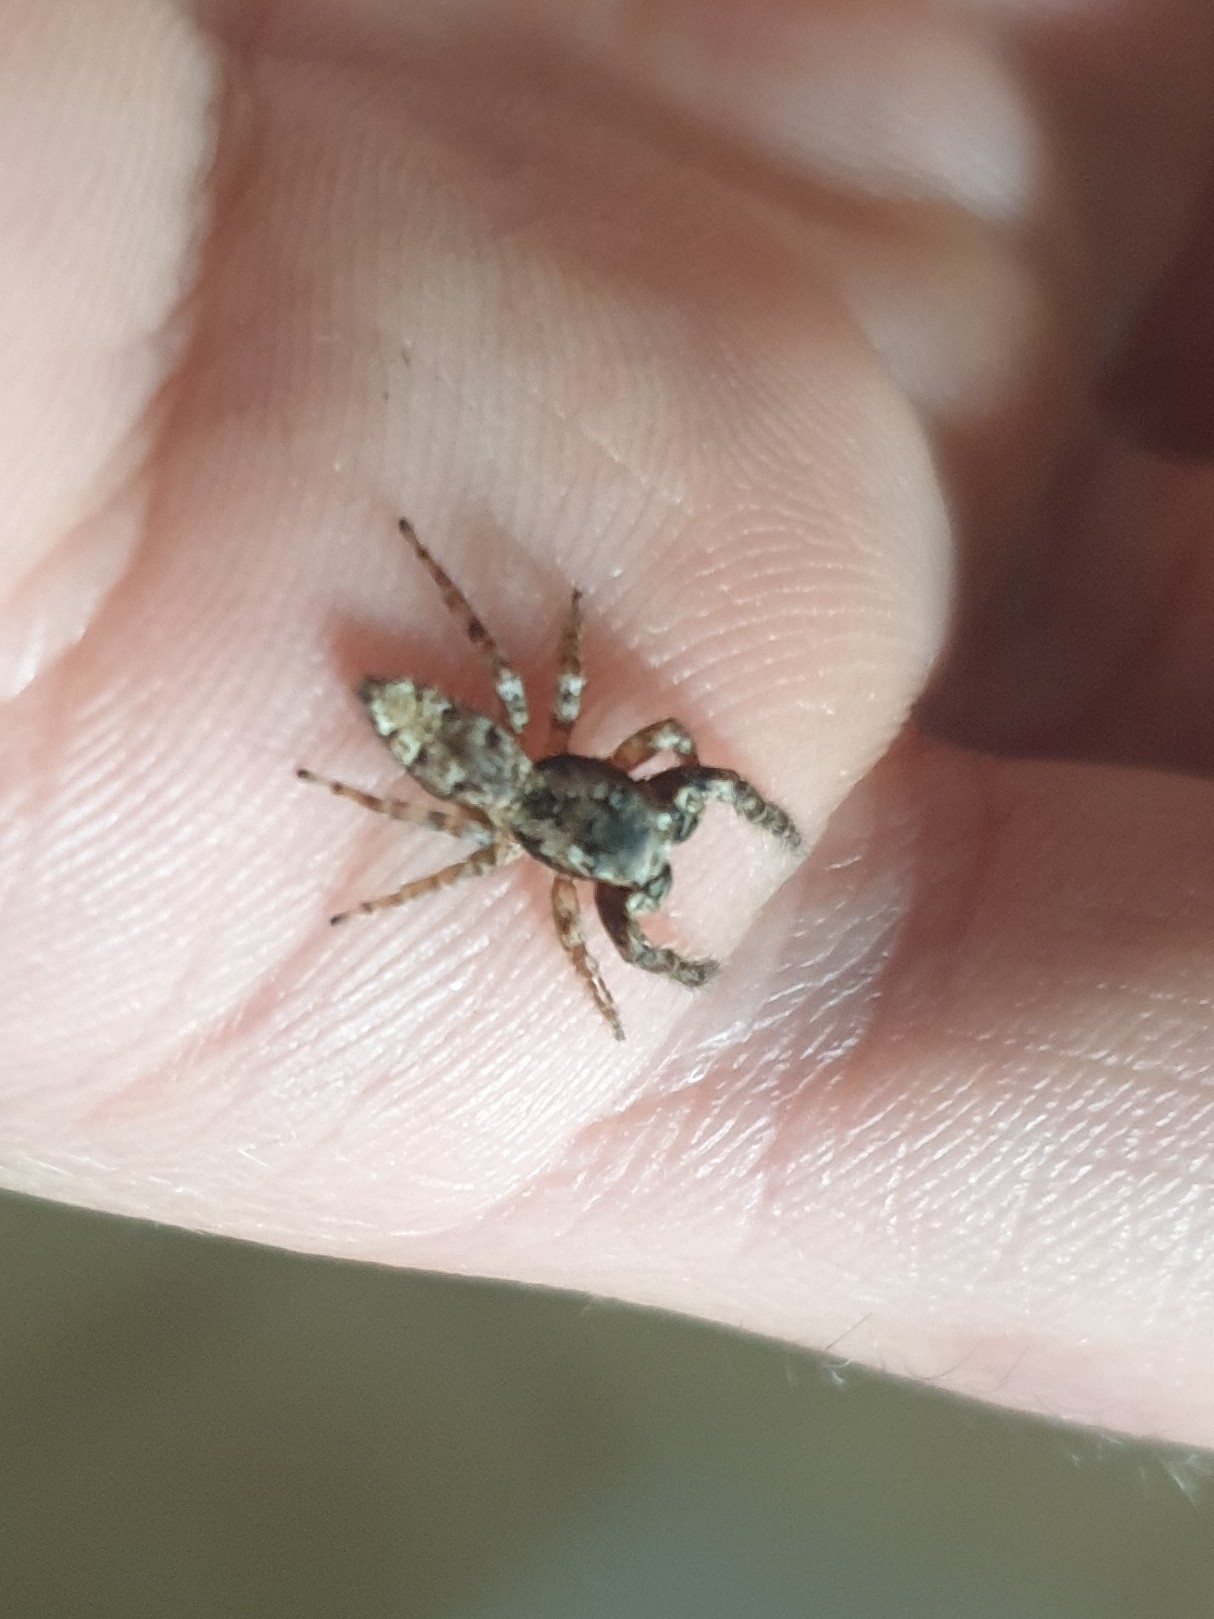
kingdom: Animalia
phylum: Arthropoda
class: Arachnida
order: Araneae
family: Salticidae
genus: Marpissa
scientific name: Marpissa muscosa
